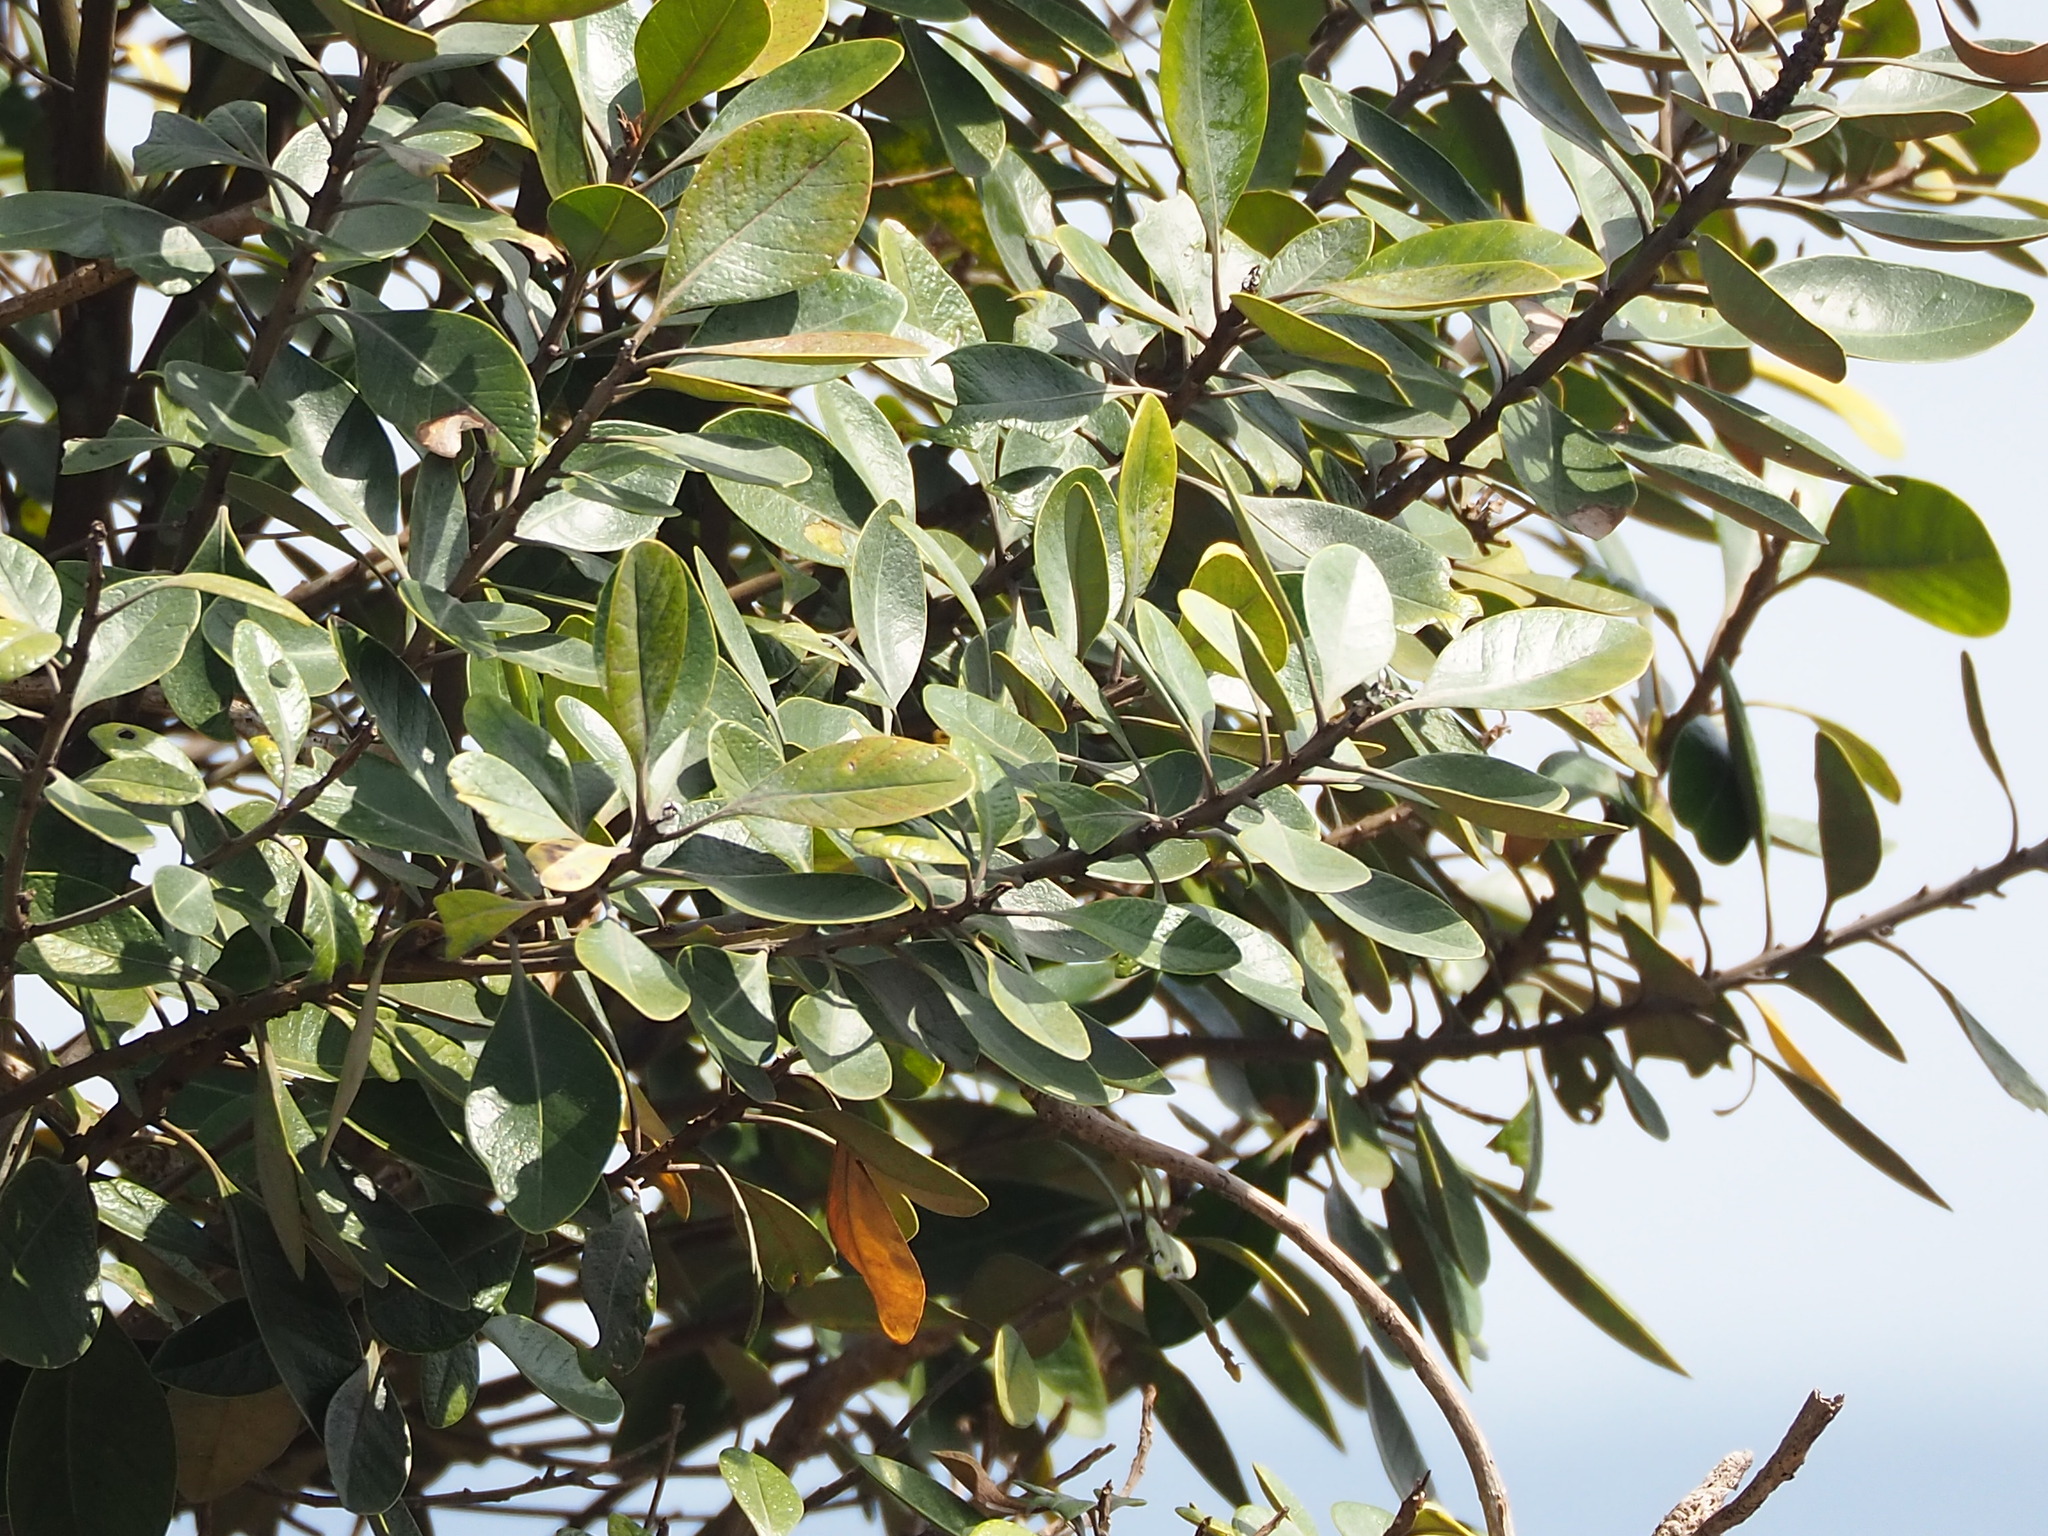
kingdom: Plantae
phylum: Tracheophyta
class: Magnoliopsida
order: Ericales
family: Sapotaceae
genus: Planchonella
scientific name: Planchonella obovata
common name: Black-ash
